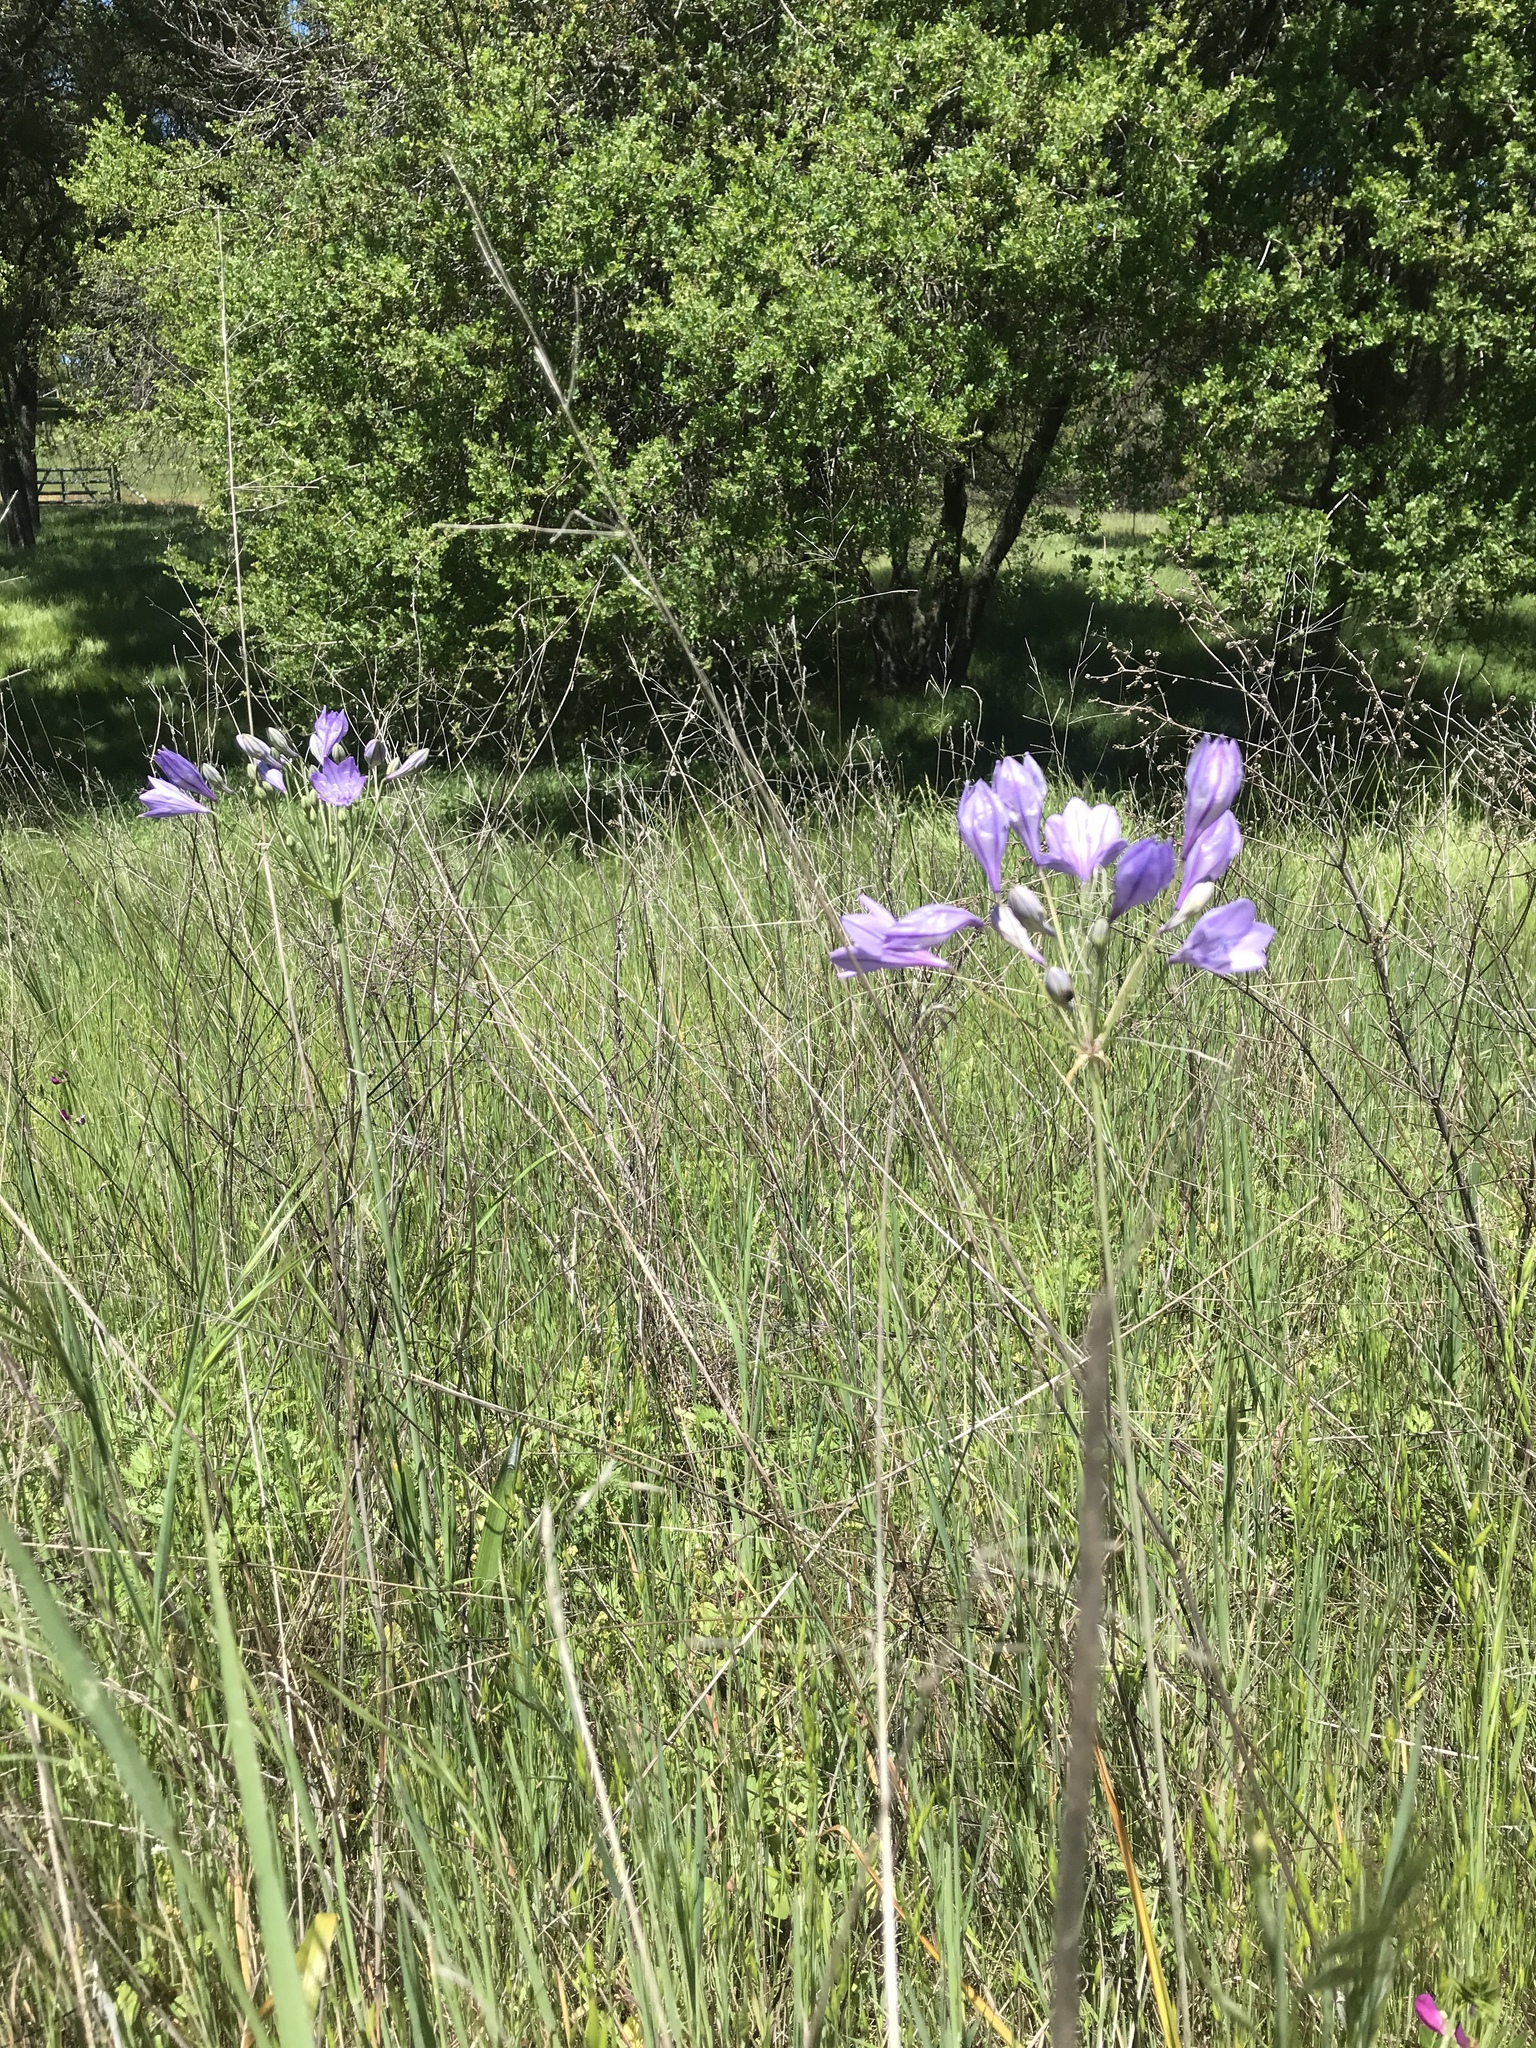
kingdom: Plantae
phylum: Tracheophyta
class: Liliopsida
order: Asparagales
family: Asparagaceae
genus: Triteleia
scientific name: Triteleia laxa
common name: Triplet-lily
